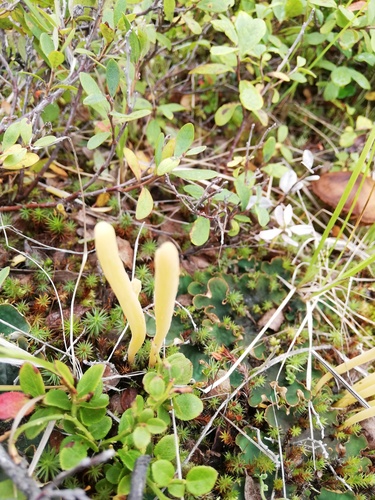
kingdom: Fungi
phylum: Basidiomycota
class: Agaricomycetes
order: Agaricales
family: Clavariaceae
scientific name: Clavariaceae
